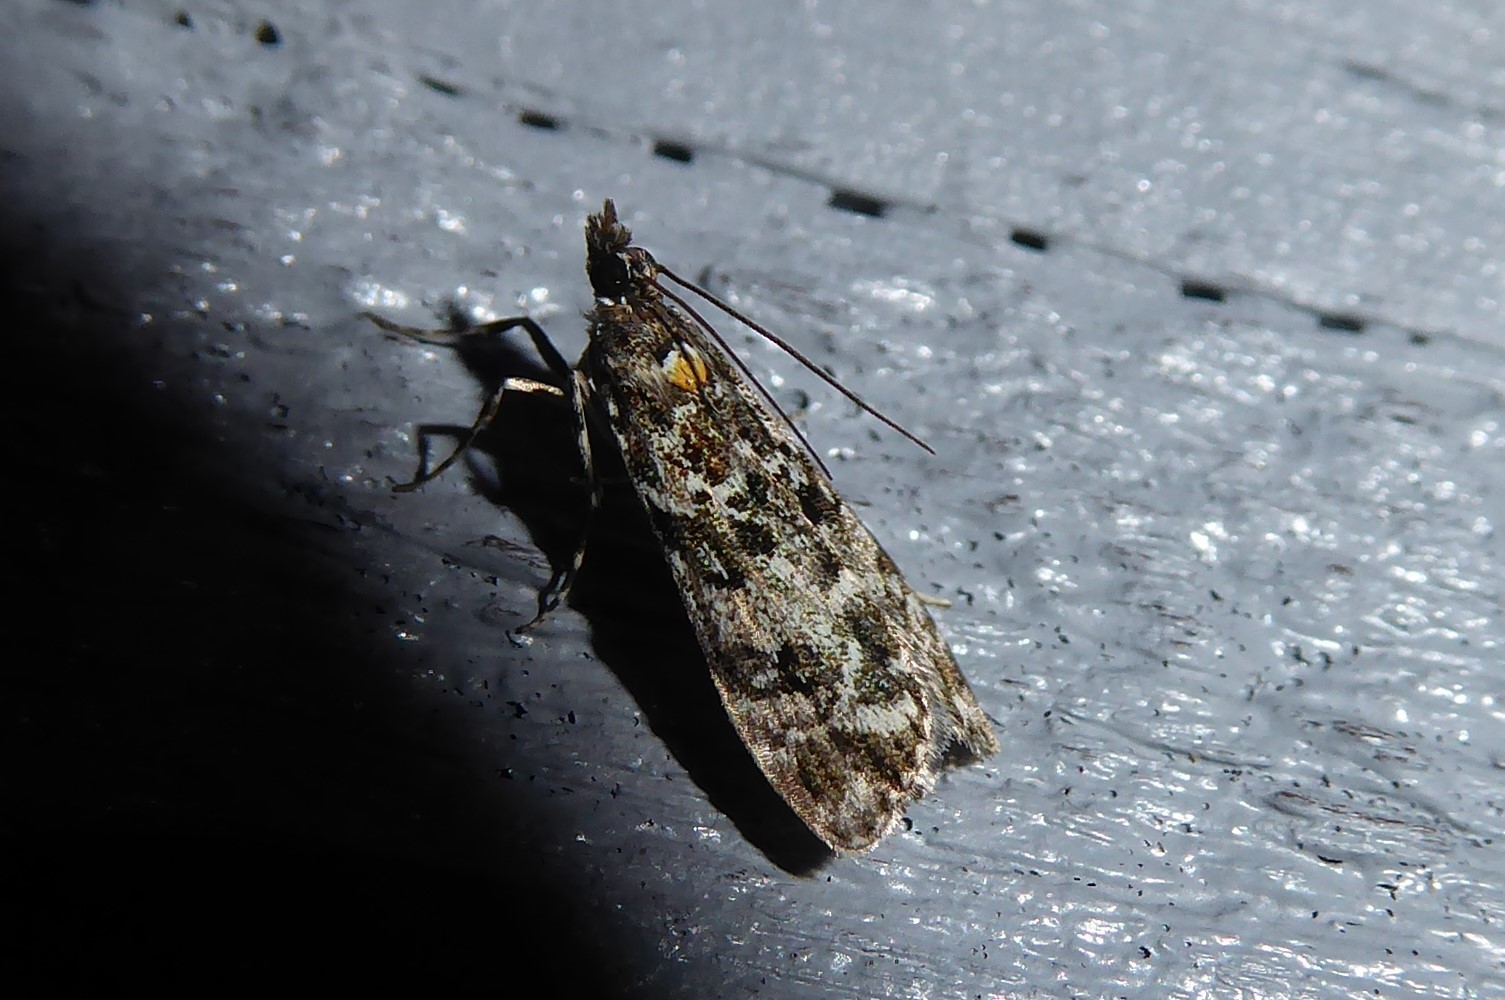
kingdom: Animalia
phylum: Arthropoda
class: Insecta
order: Lepidoptera
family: Crambidae
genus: Eudonia
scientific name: Eudonia submarginalis
